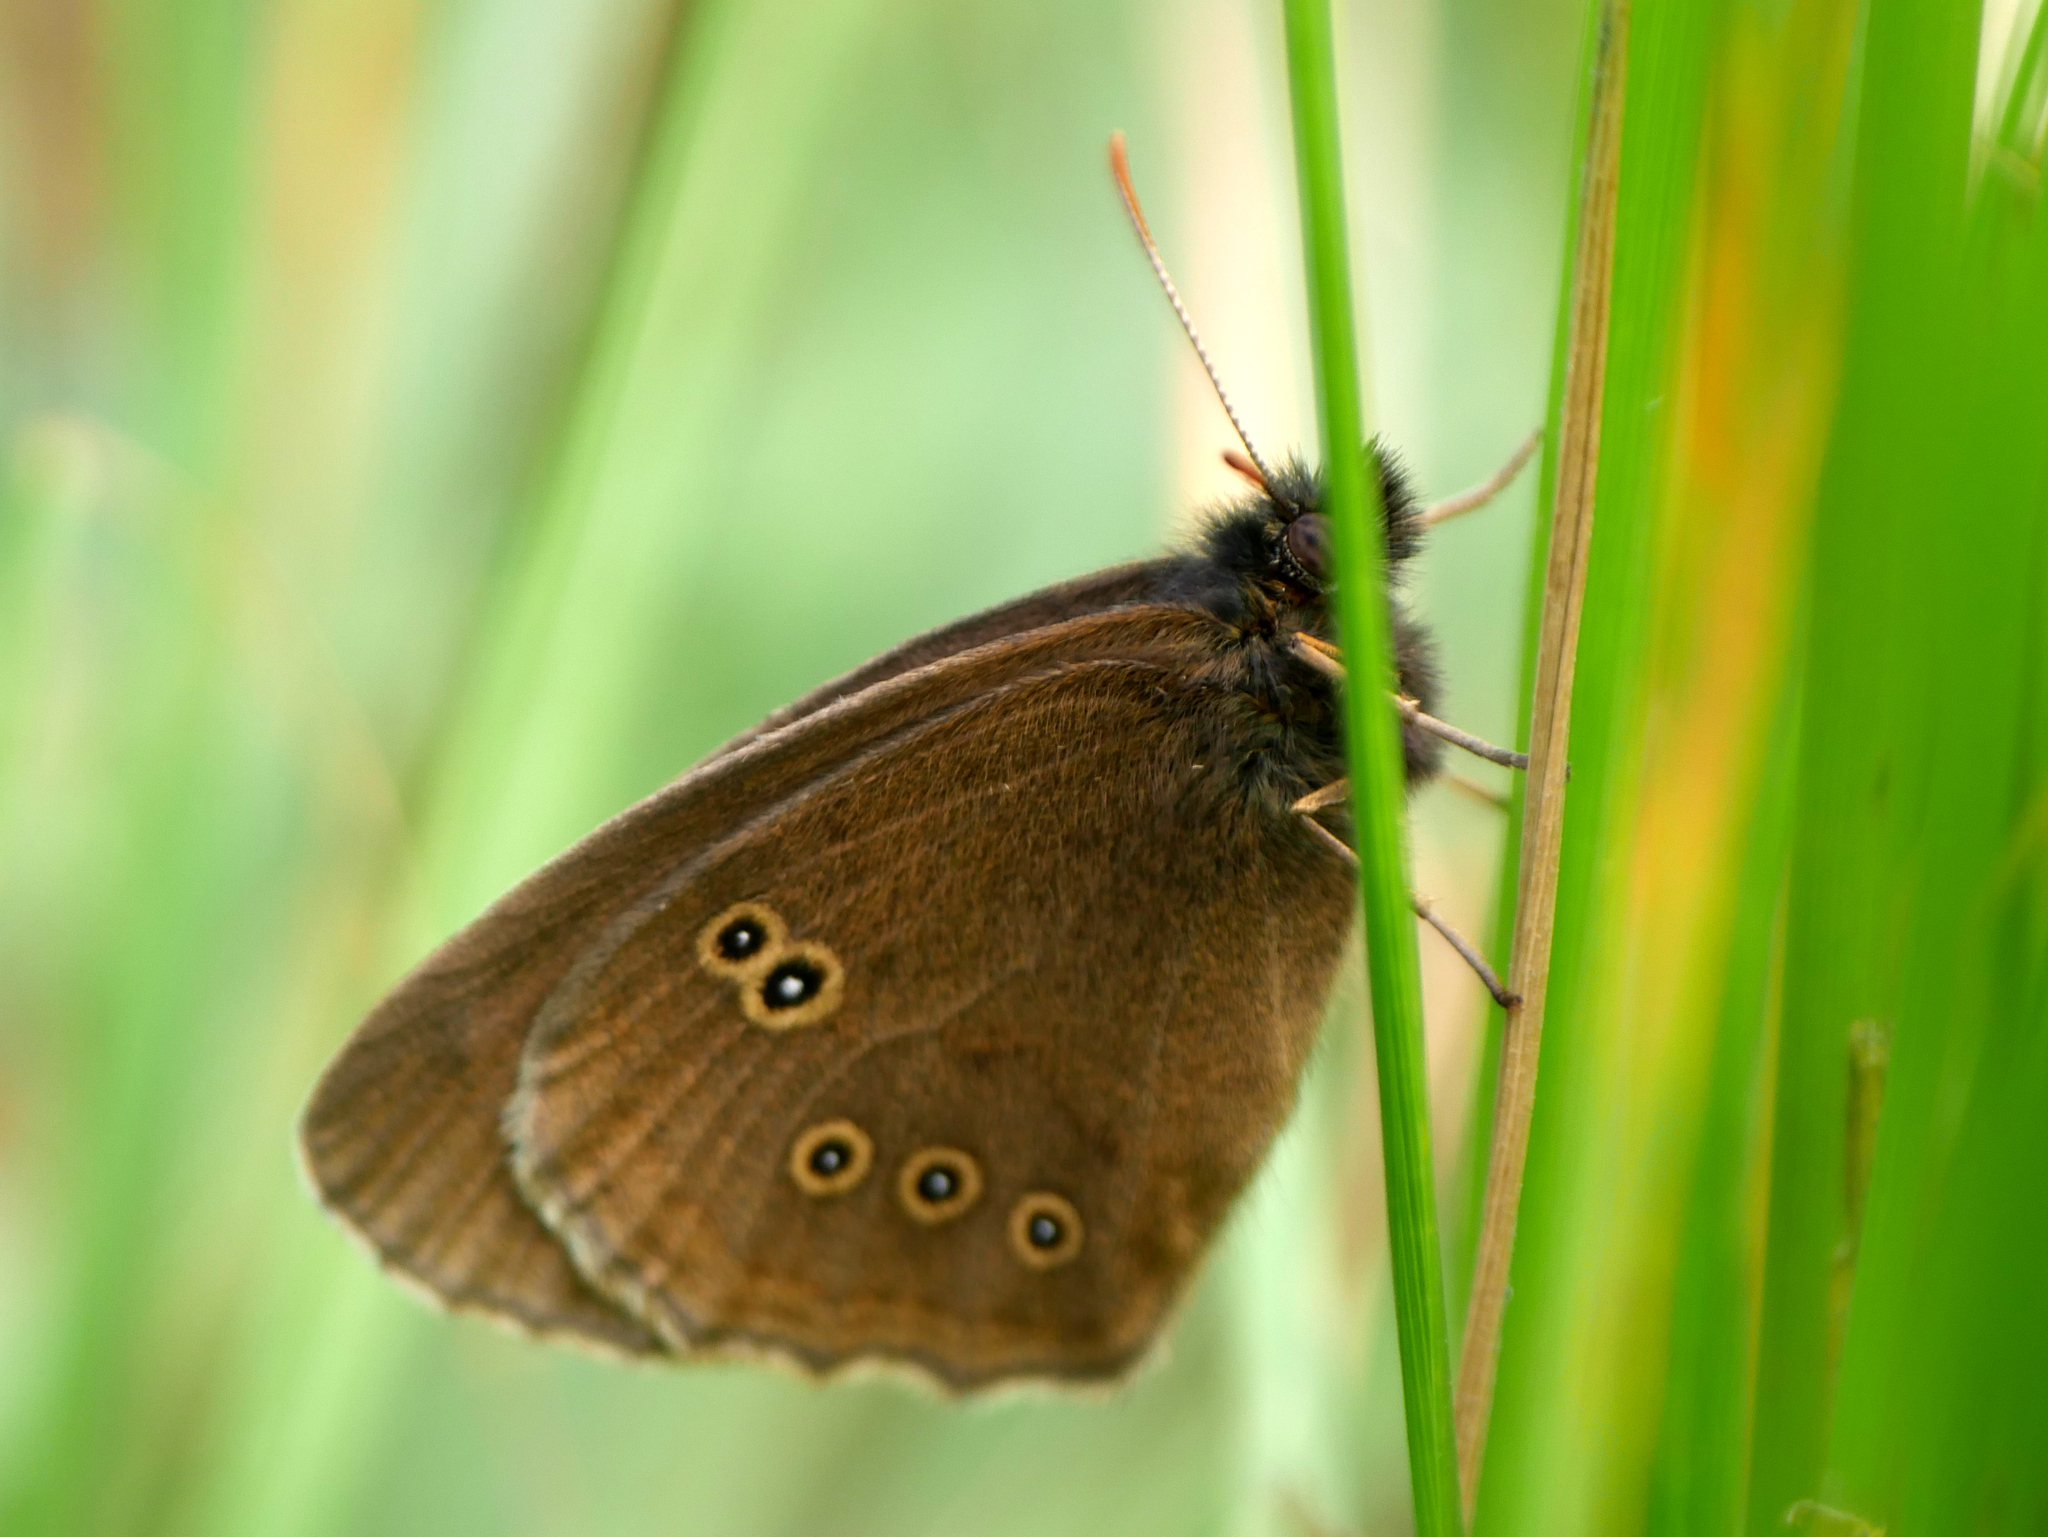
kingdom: Animalia
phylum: Arthropoda
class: Insecta
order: Lepidoptera
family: Nymphalidae
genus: Aphantopus
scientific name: Aphantopus hyperantus
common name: Ringlet
